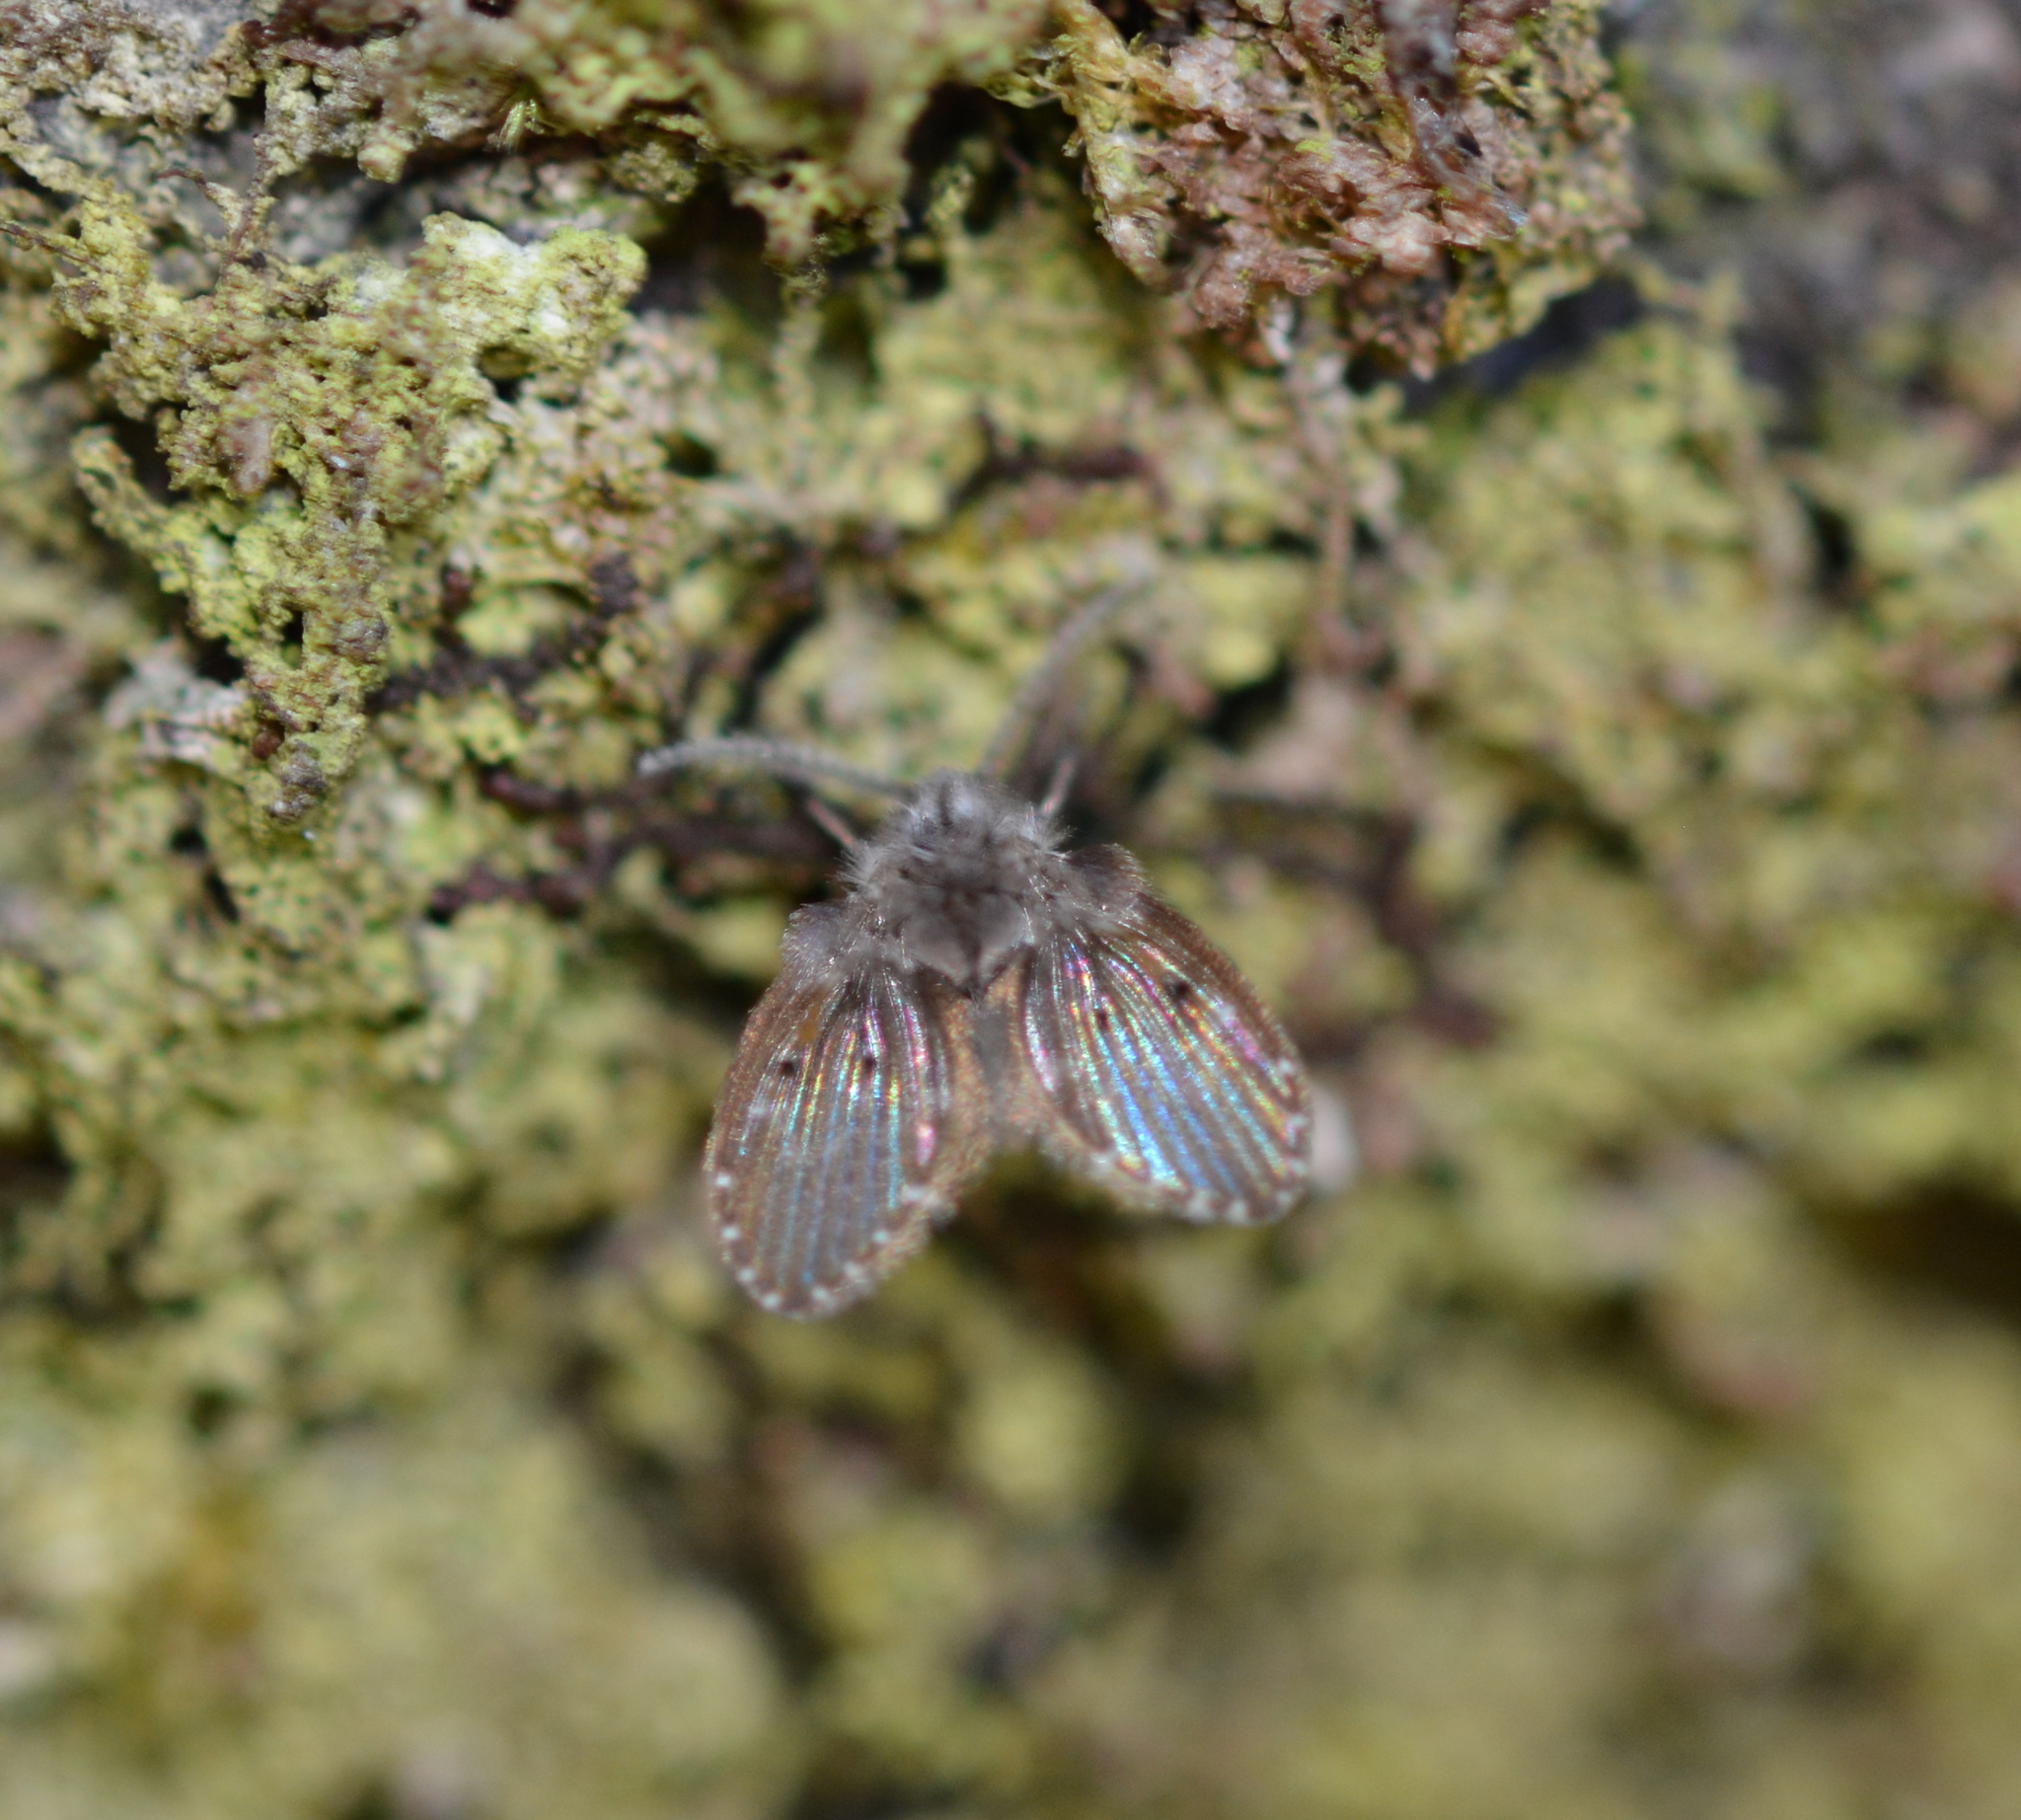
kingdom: Animalia
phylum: Arthropoda
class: Insecta
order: Diptera
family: Psychodidae
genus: Clogmia
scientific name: Clogmia albipunctatus
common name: White-spotted moth fly
